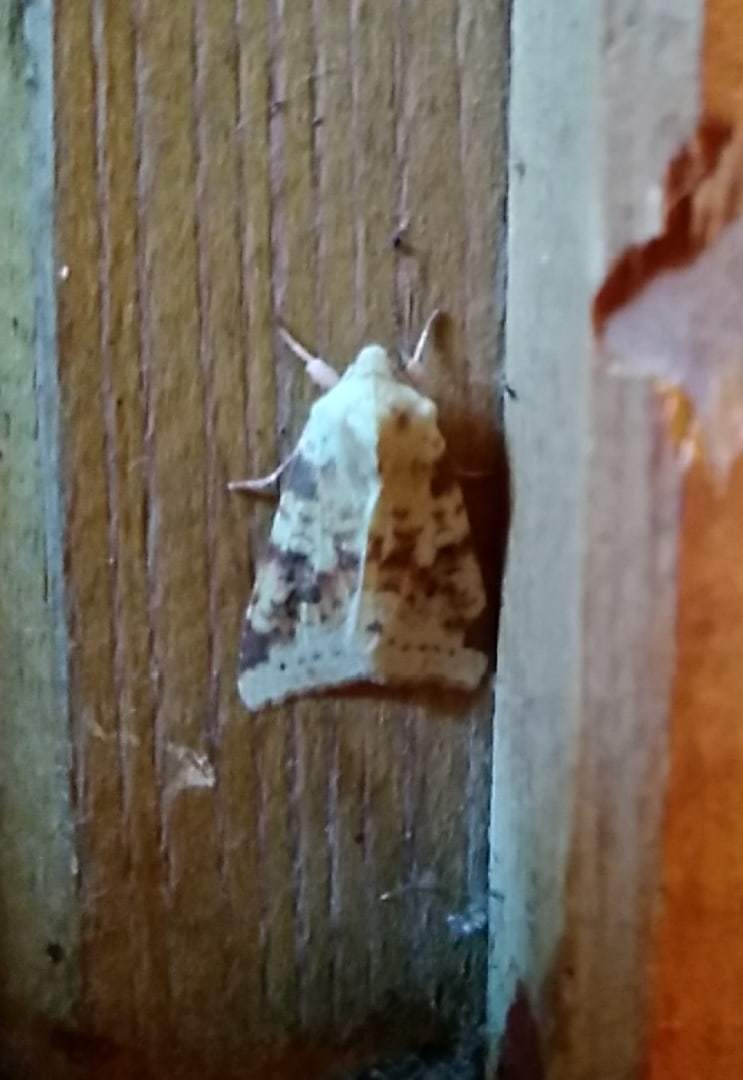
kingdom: Animalia
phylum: Arthropoda
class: Insecta
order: Lepidoptera
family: Noctuidae
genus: Xanthia
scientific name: Xanthia icteritia
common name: The sallow
